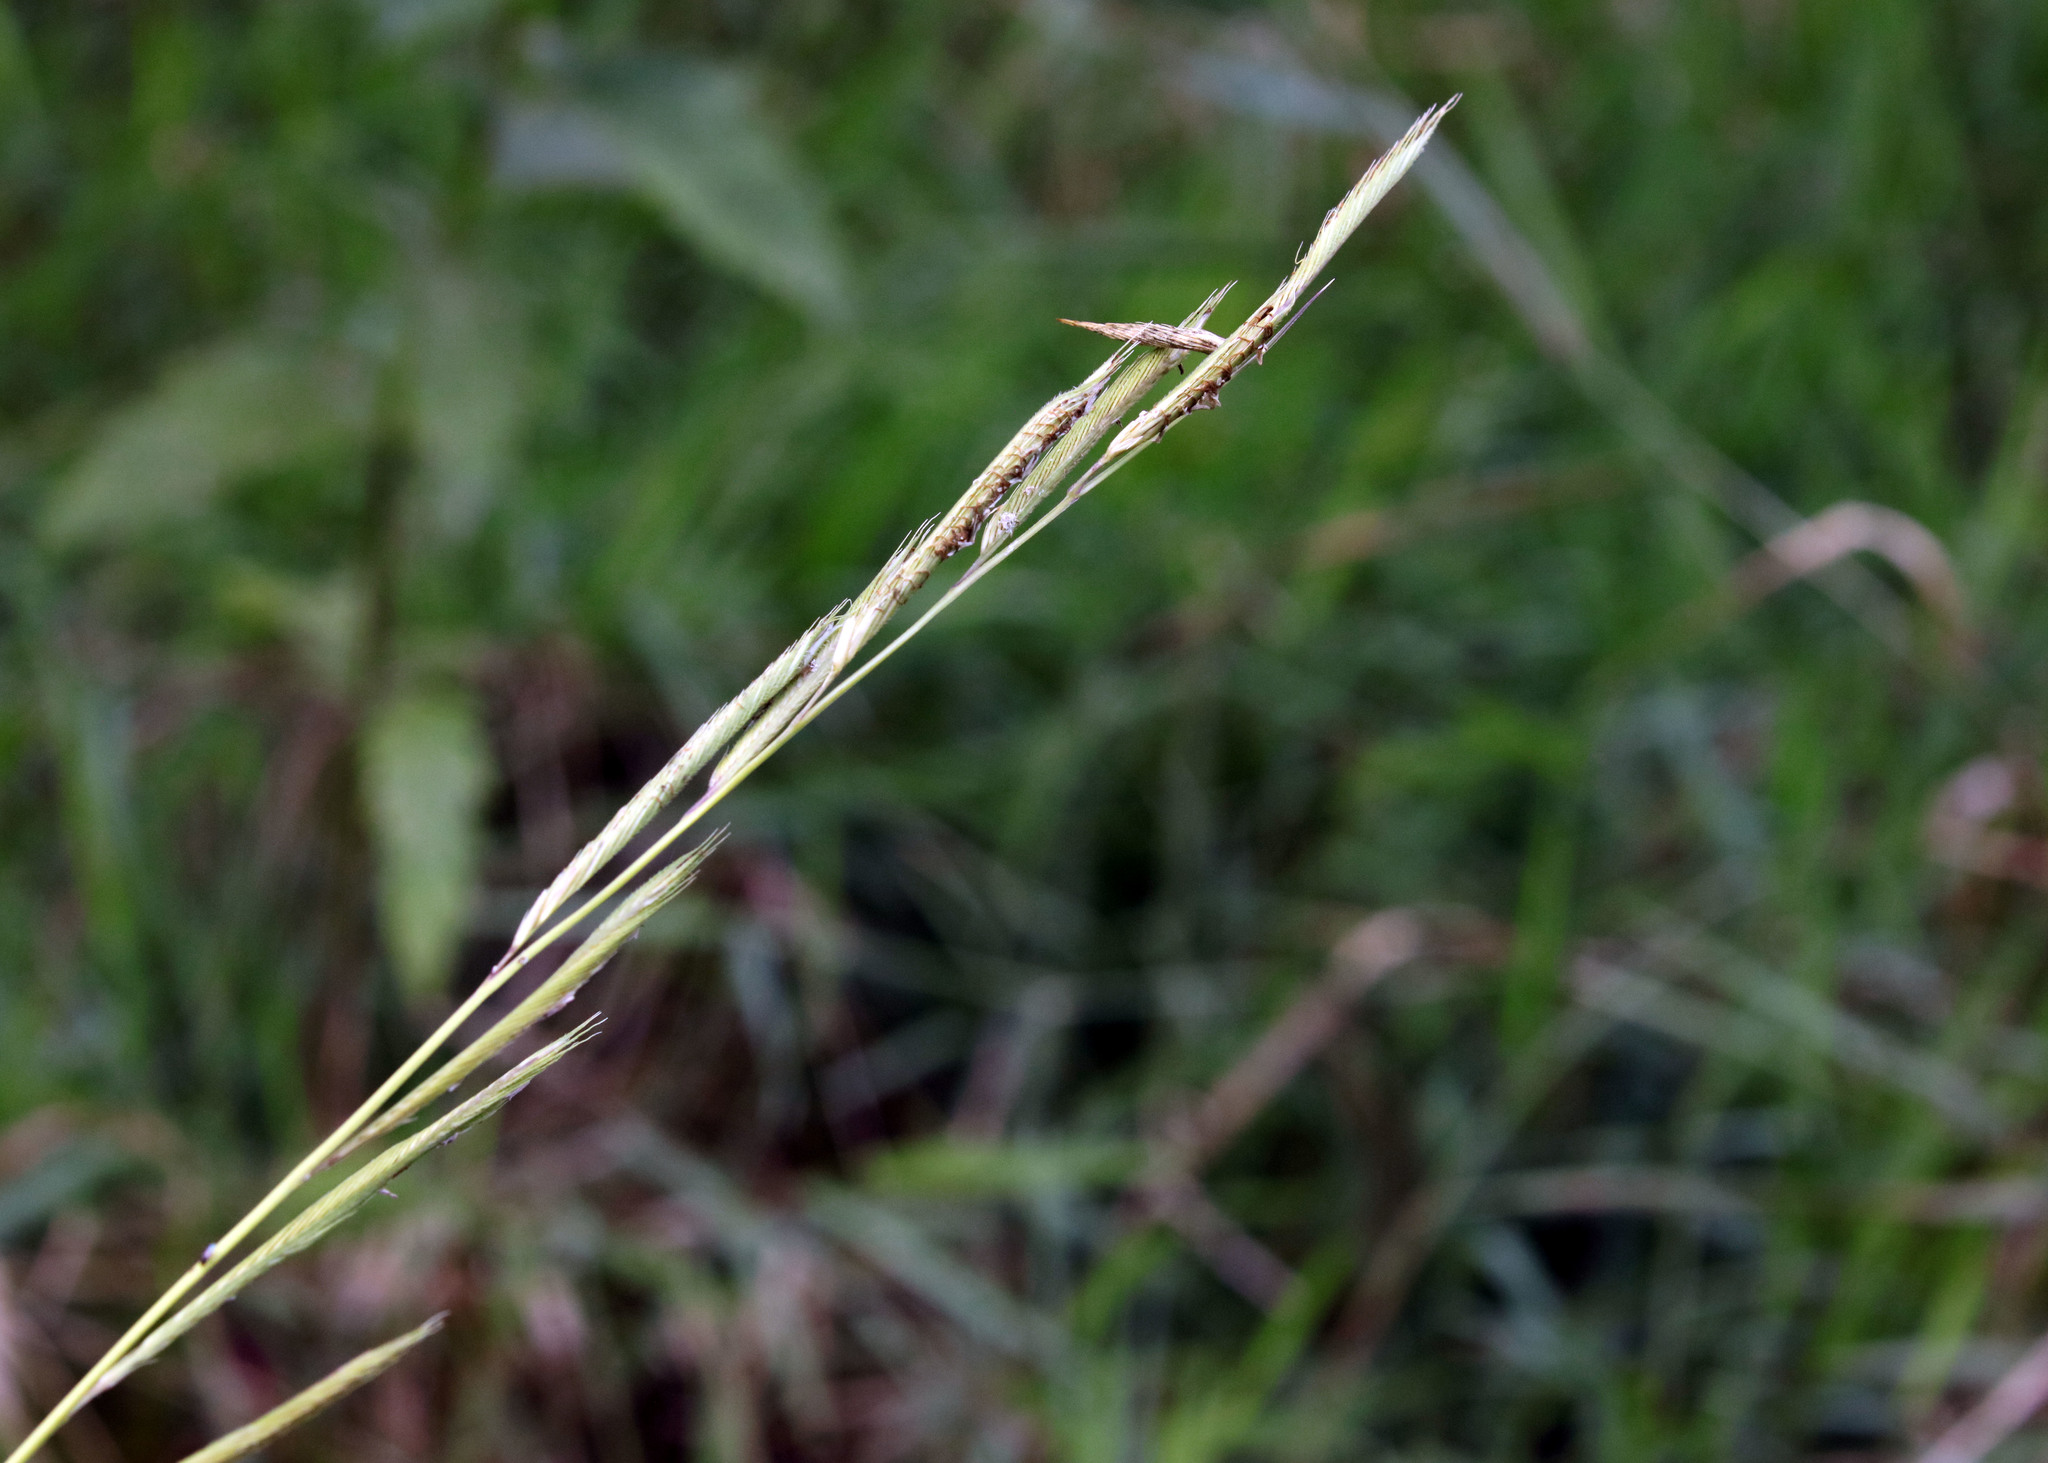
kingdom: Plantae
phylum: Tracheophyta
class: Liliopsida
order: Poales
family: Poaceae
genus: Sporobolus
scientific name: Sporobolus michauxianus
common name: Freshwater cordgrass
